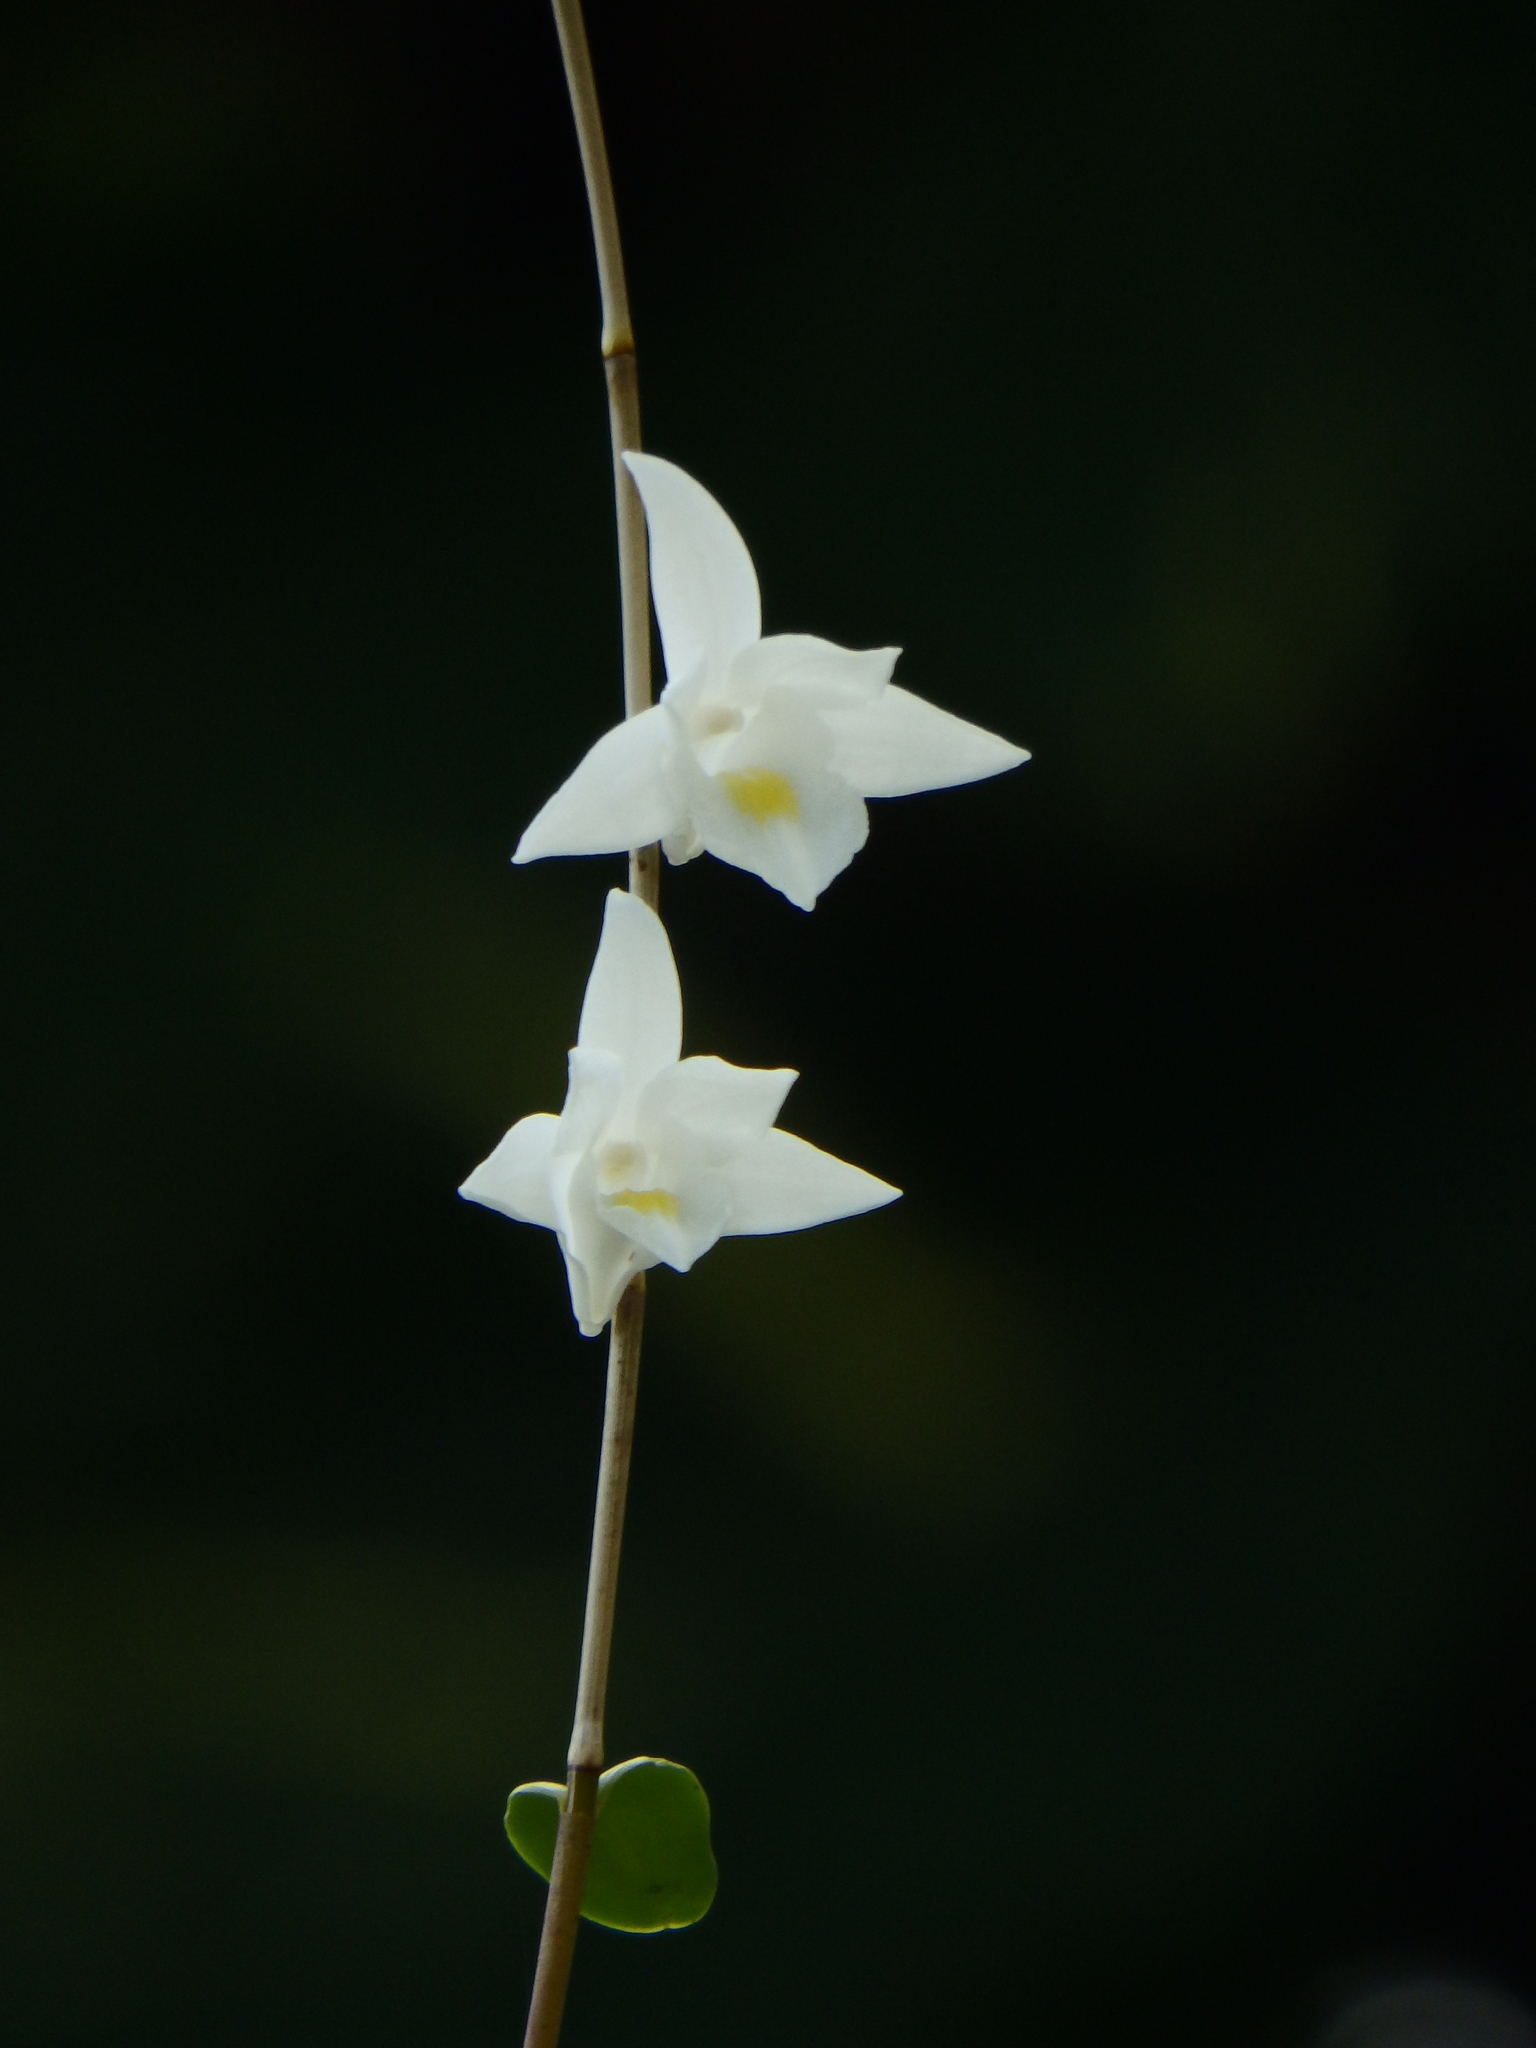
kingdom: Plantae
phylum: Tracheophyta
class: Liliopsida
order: Asparagales
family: Orchidaceae
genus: Dendrobium
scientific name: Dendrobium crumenatum
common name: Orchid
